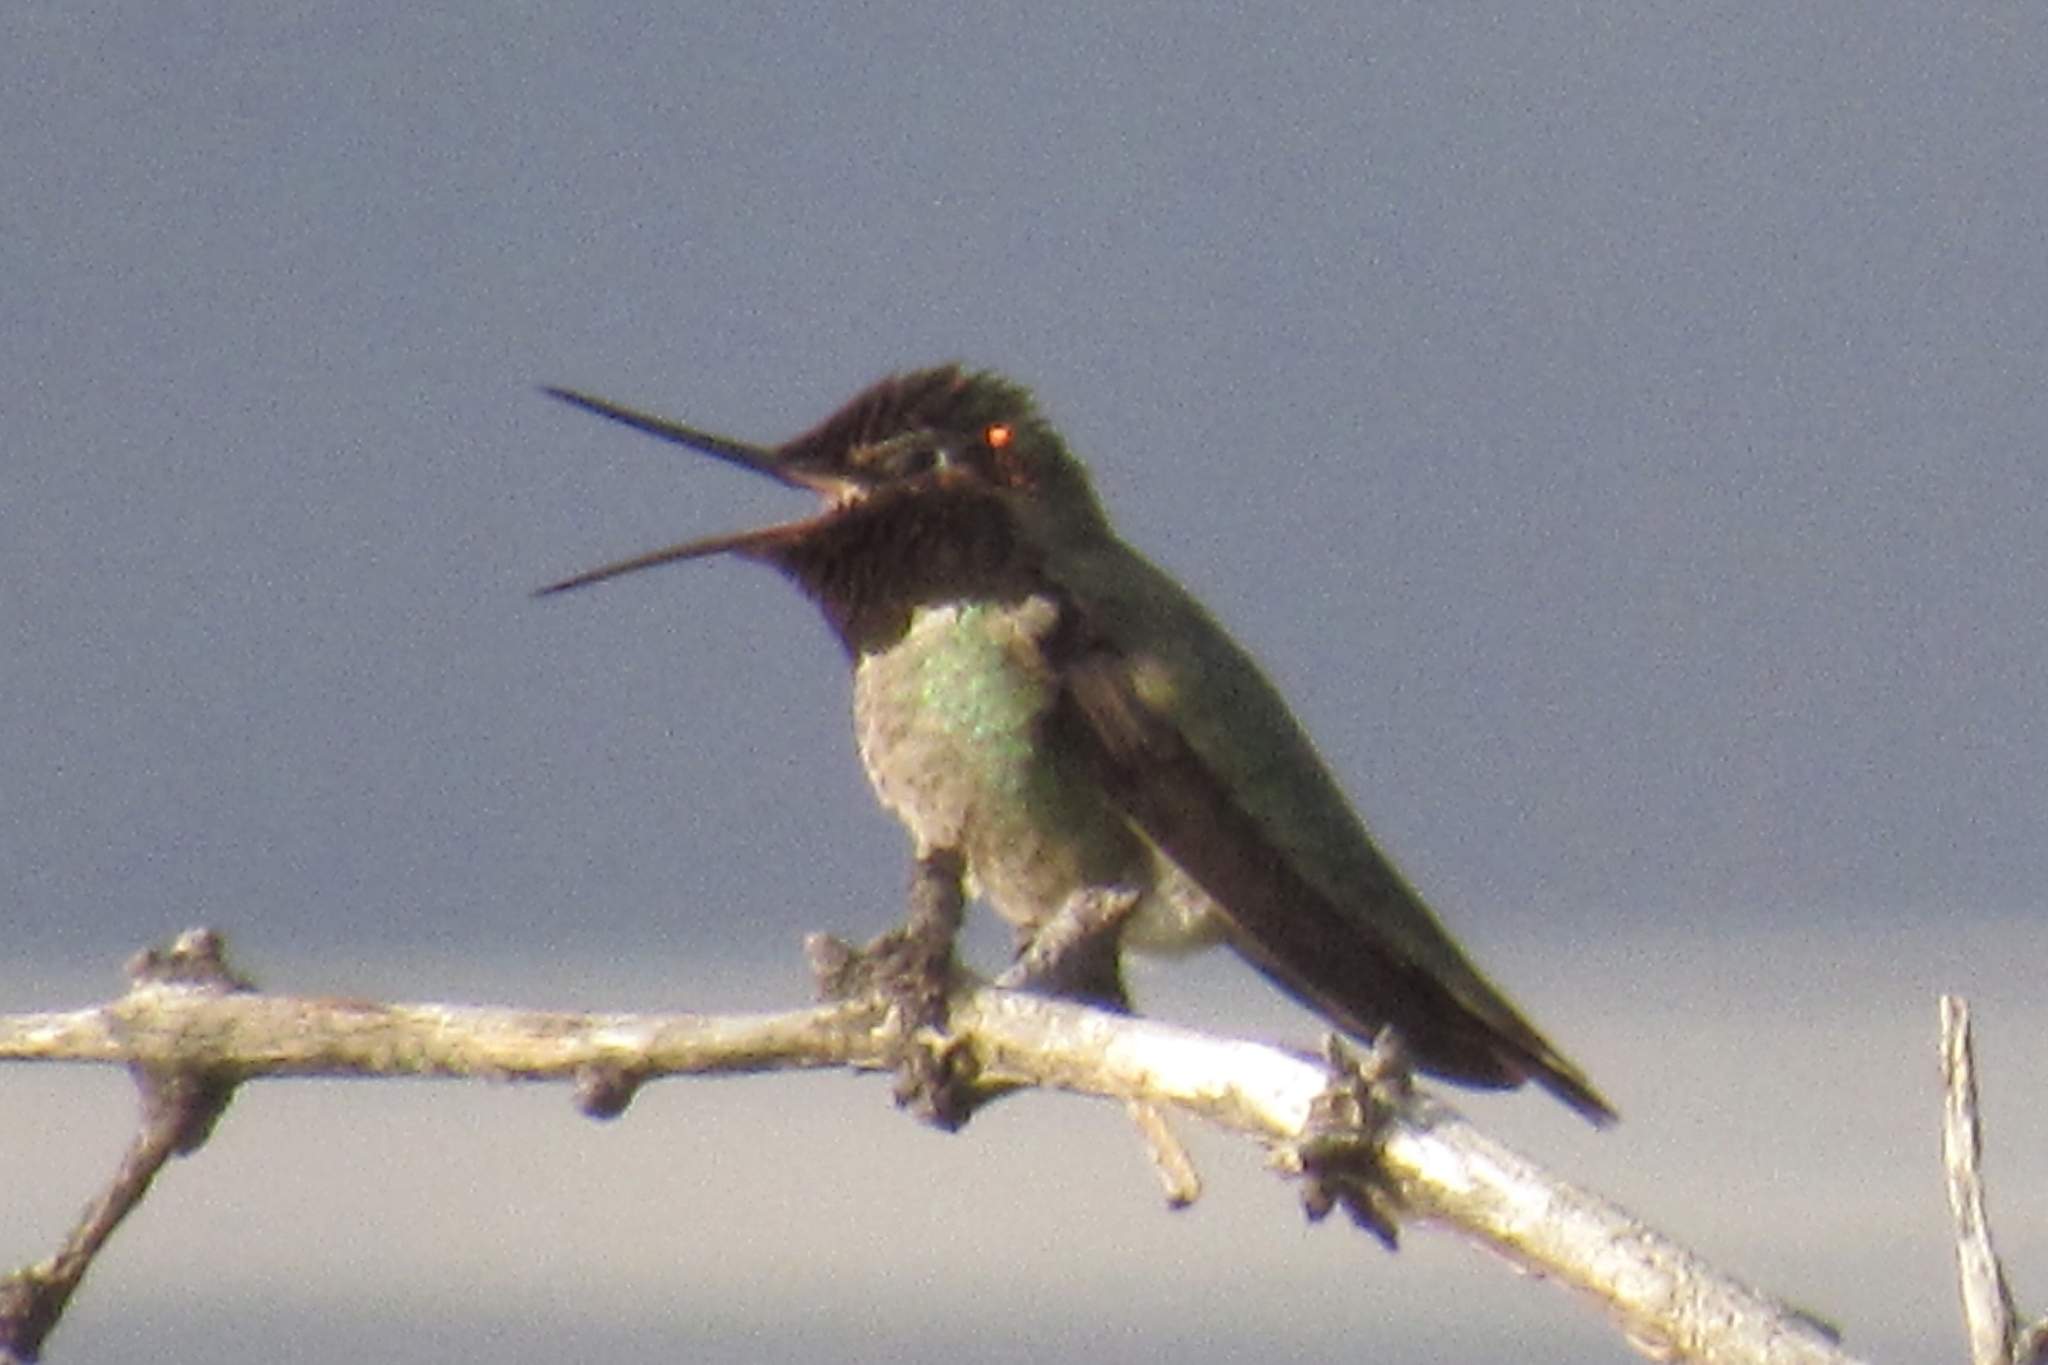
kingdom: Animalia
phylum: Chordata
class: Aves
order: Apodiformes
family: Trochilidae
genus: Calypte
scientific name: Calypte anna
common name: Anna's hummingbird
